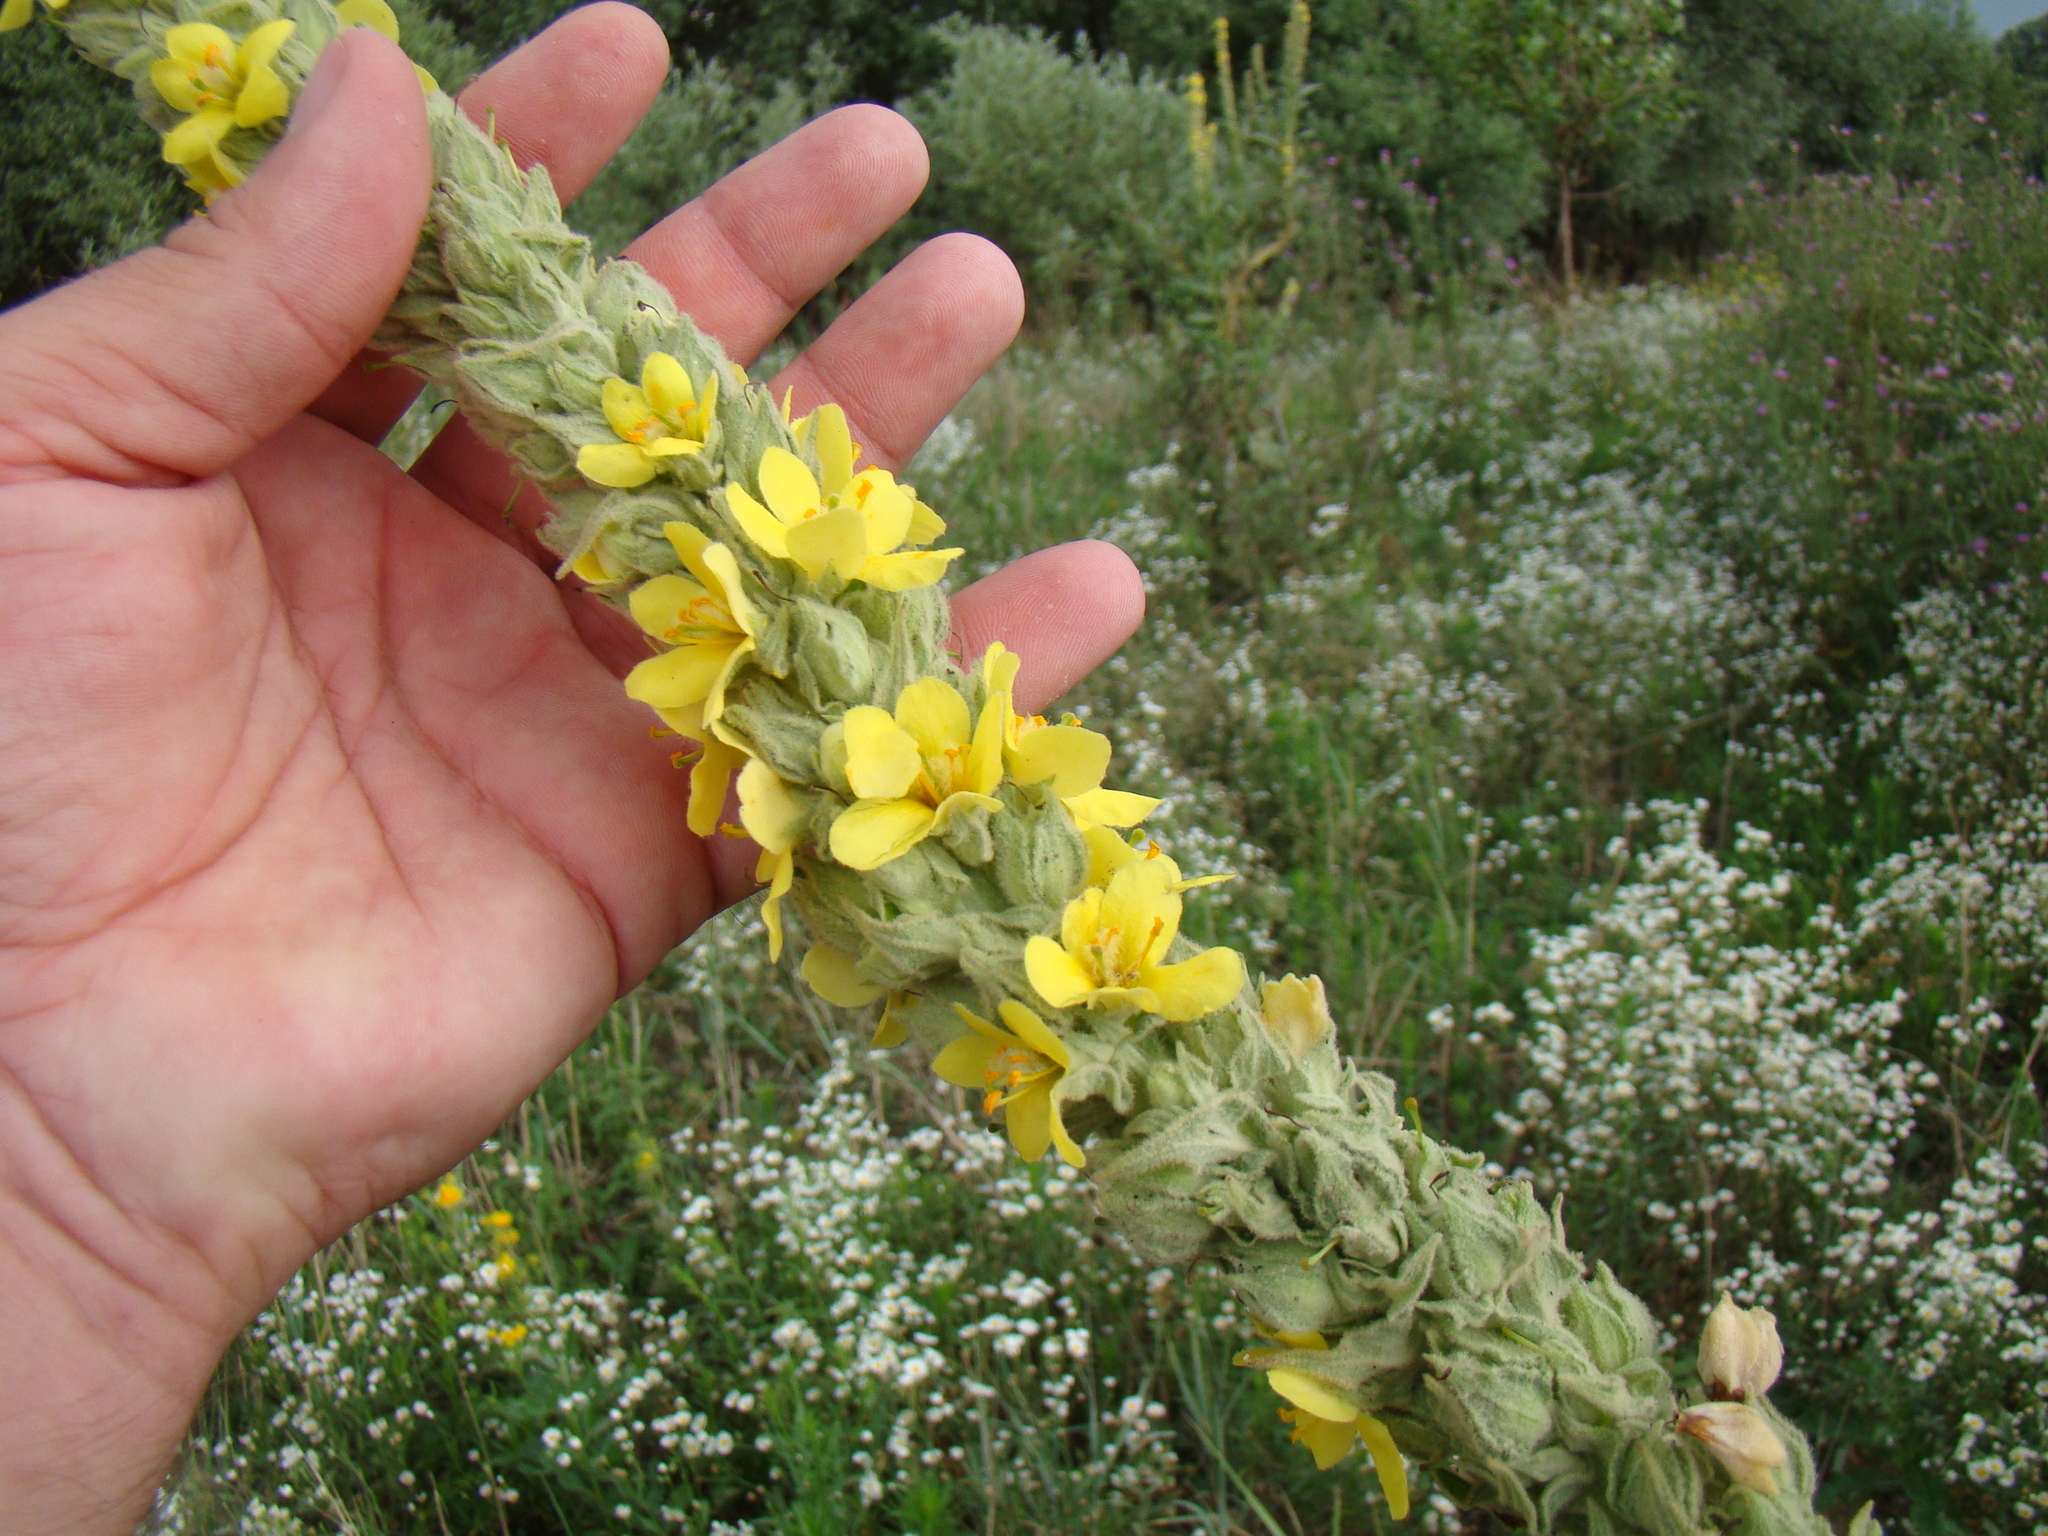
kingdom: Plantae
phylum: Tracheophyta
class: Magnoliopsida
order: Lamiales
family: Scrophulariaceae
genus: Verbascum
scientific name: Verbascum thapsus
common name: Common mullein
